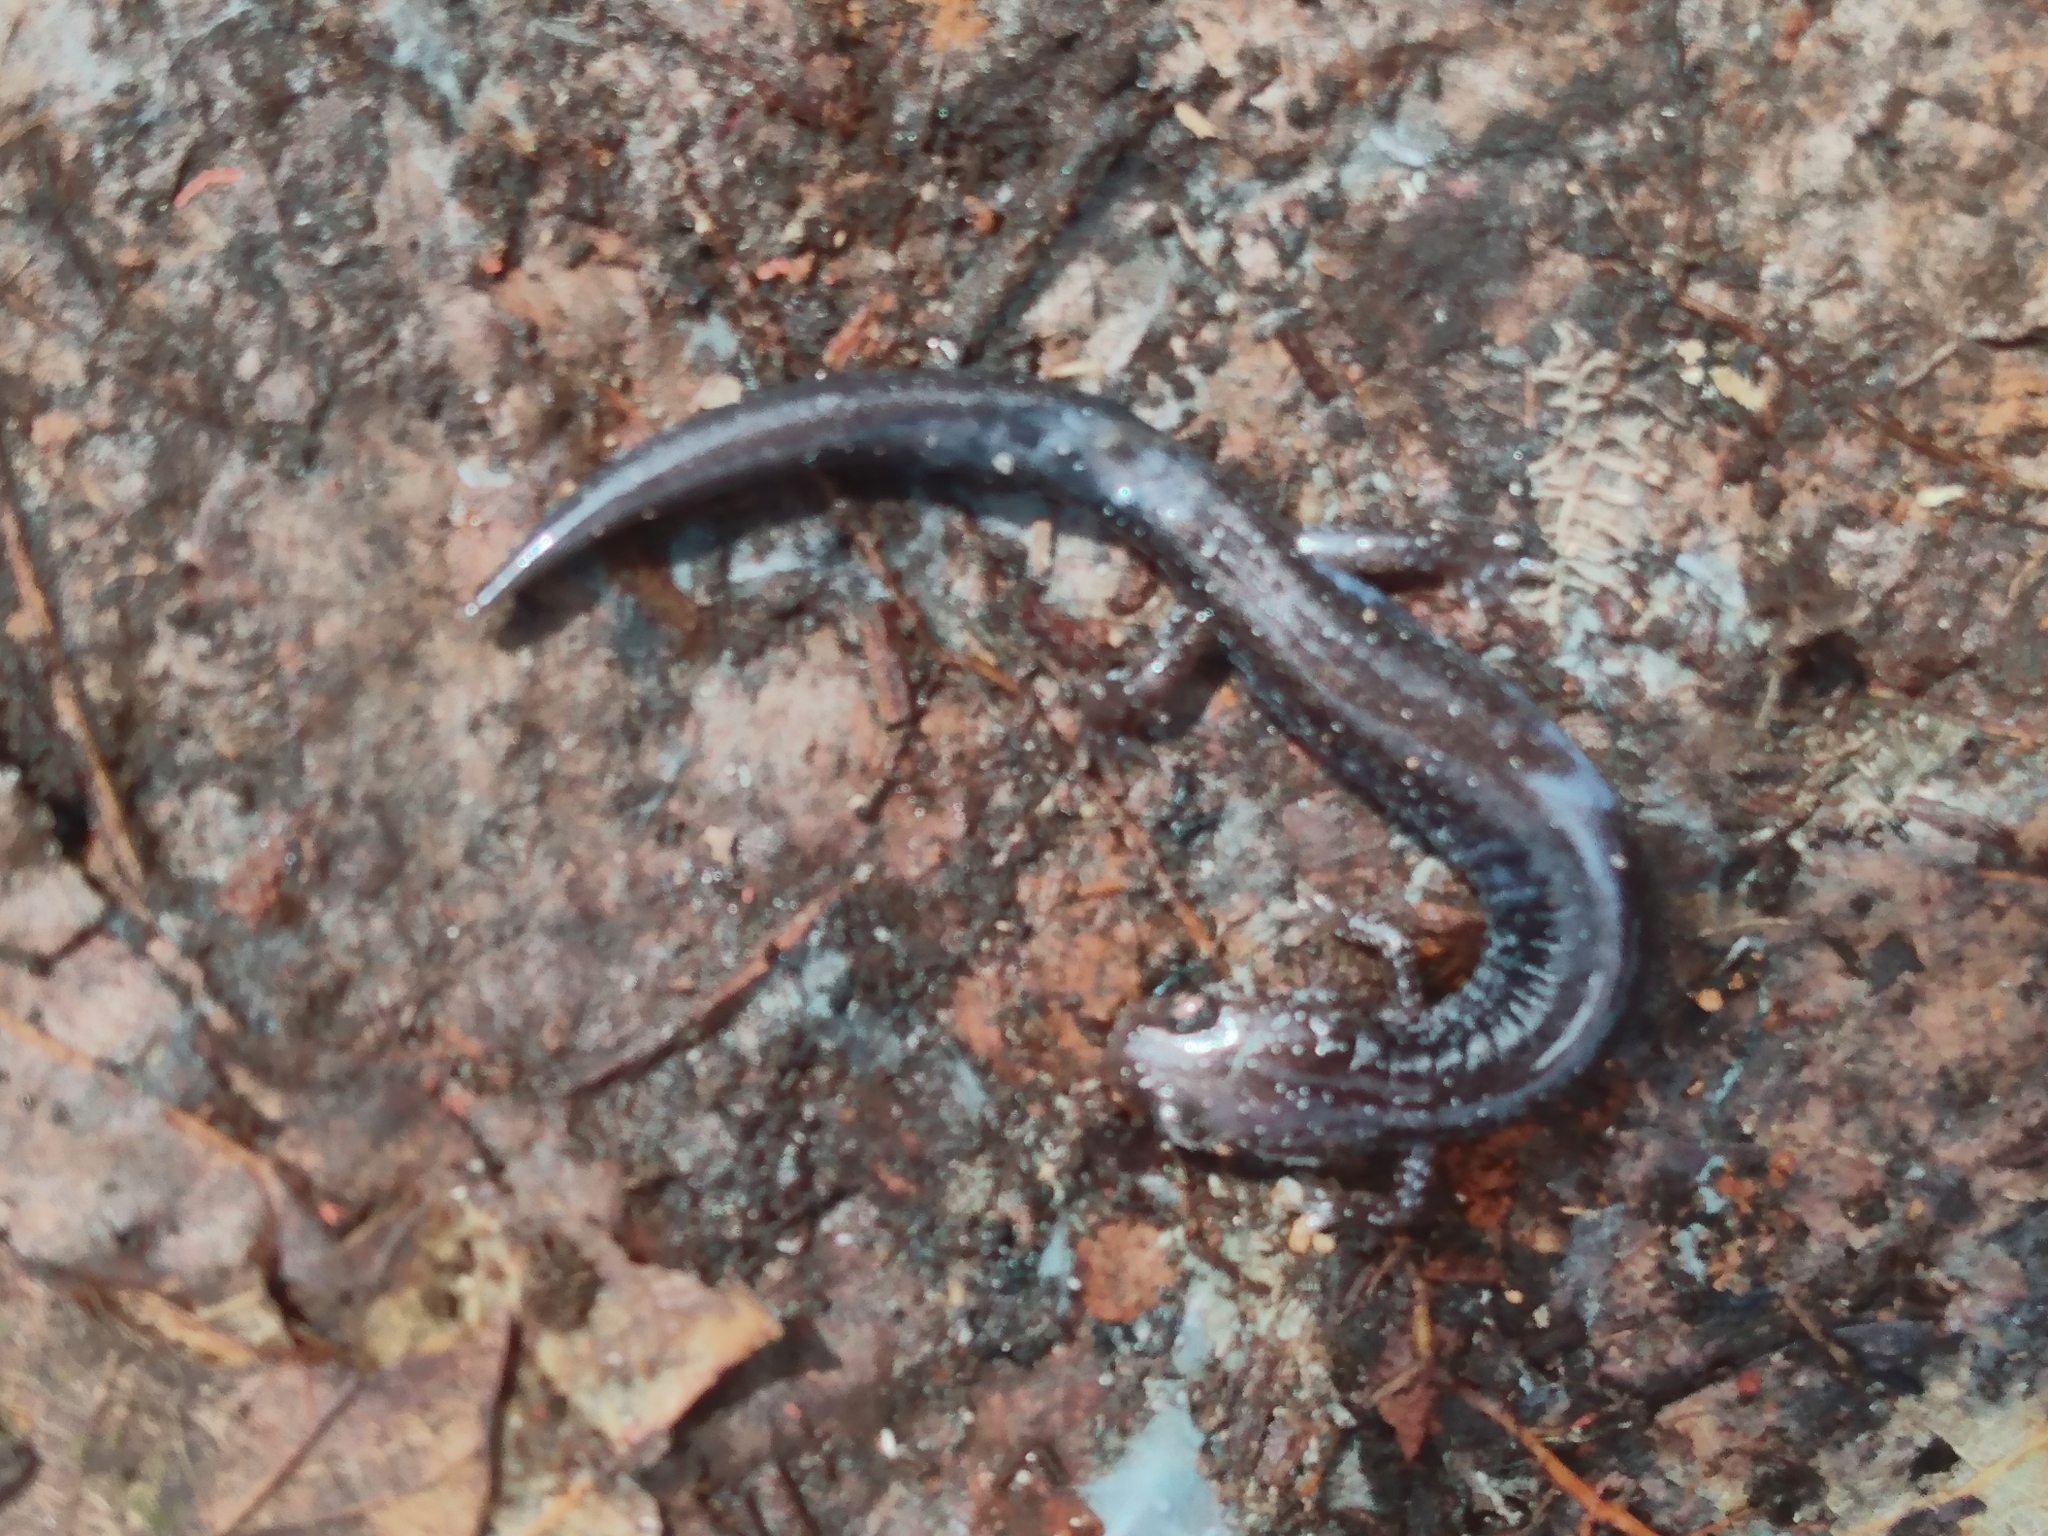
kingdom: Animalia
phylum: Chordata
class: Amphibia
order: Caudata
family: Plethodontidae
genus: Plethodon
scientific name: Plethodon cinereus
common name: Redback salamander
